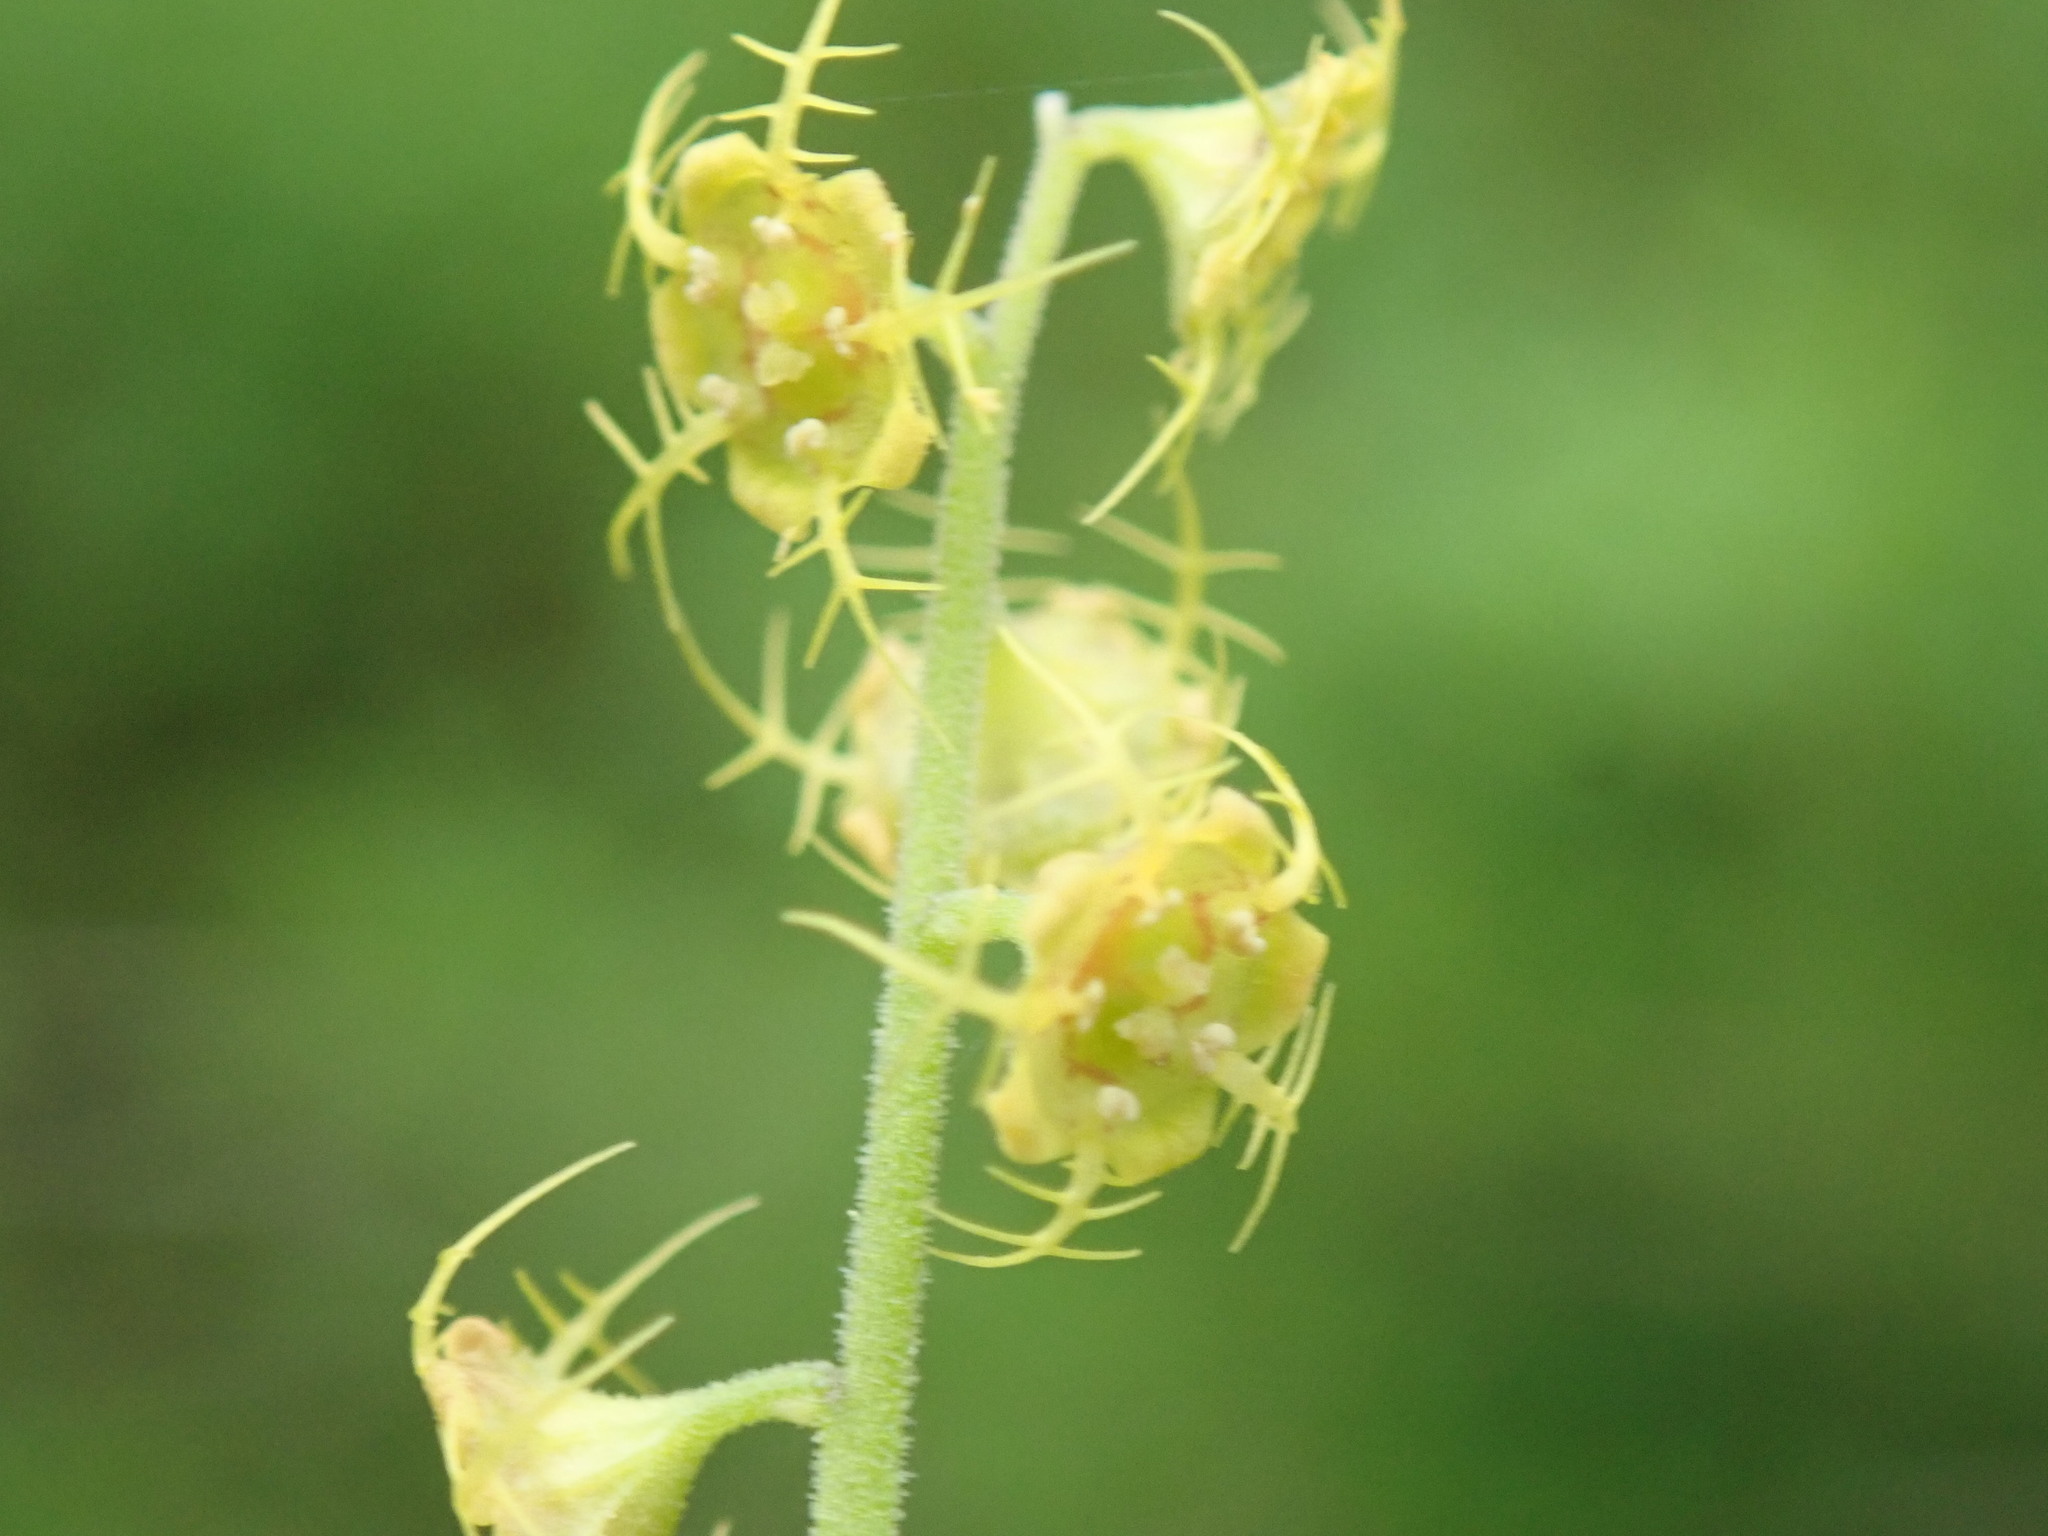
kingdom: Plantae
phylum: Tracheophyta
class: Magnoliopsida
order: Saxifragales
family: Saxifragaceae
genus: Pectiantia
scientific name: Pectiantia pentandra
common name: Alpine bishop's-cap
